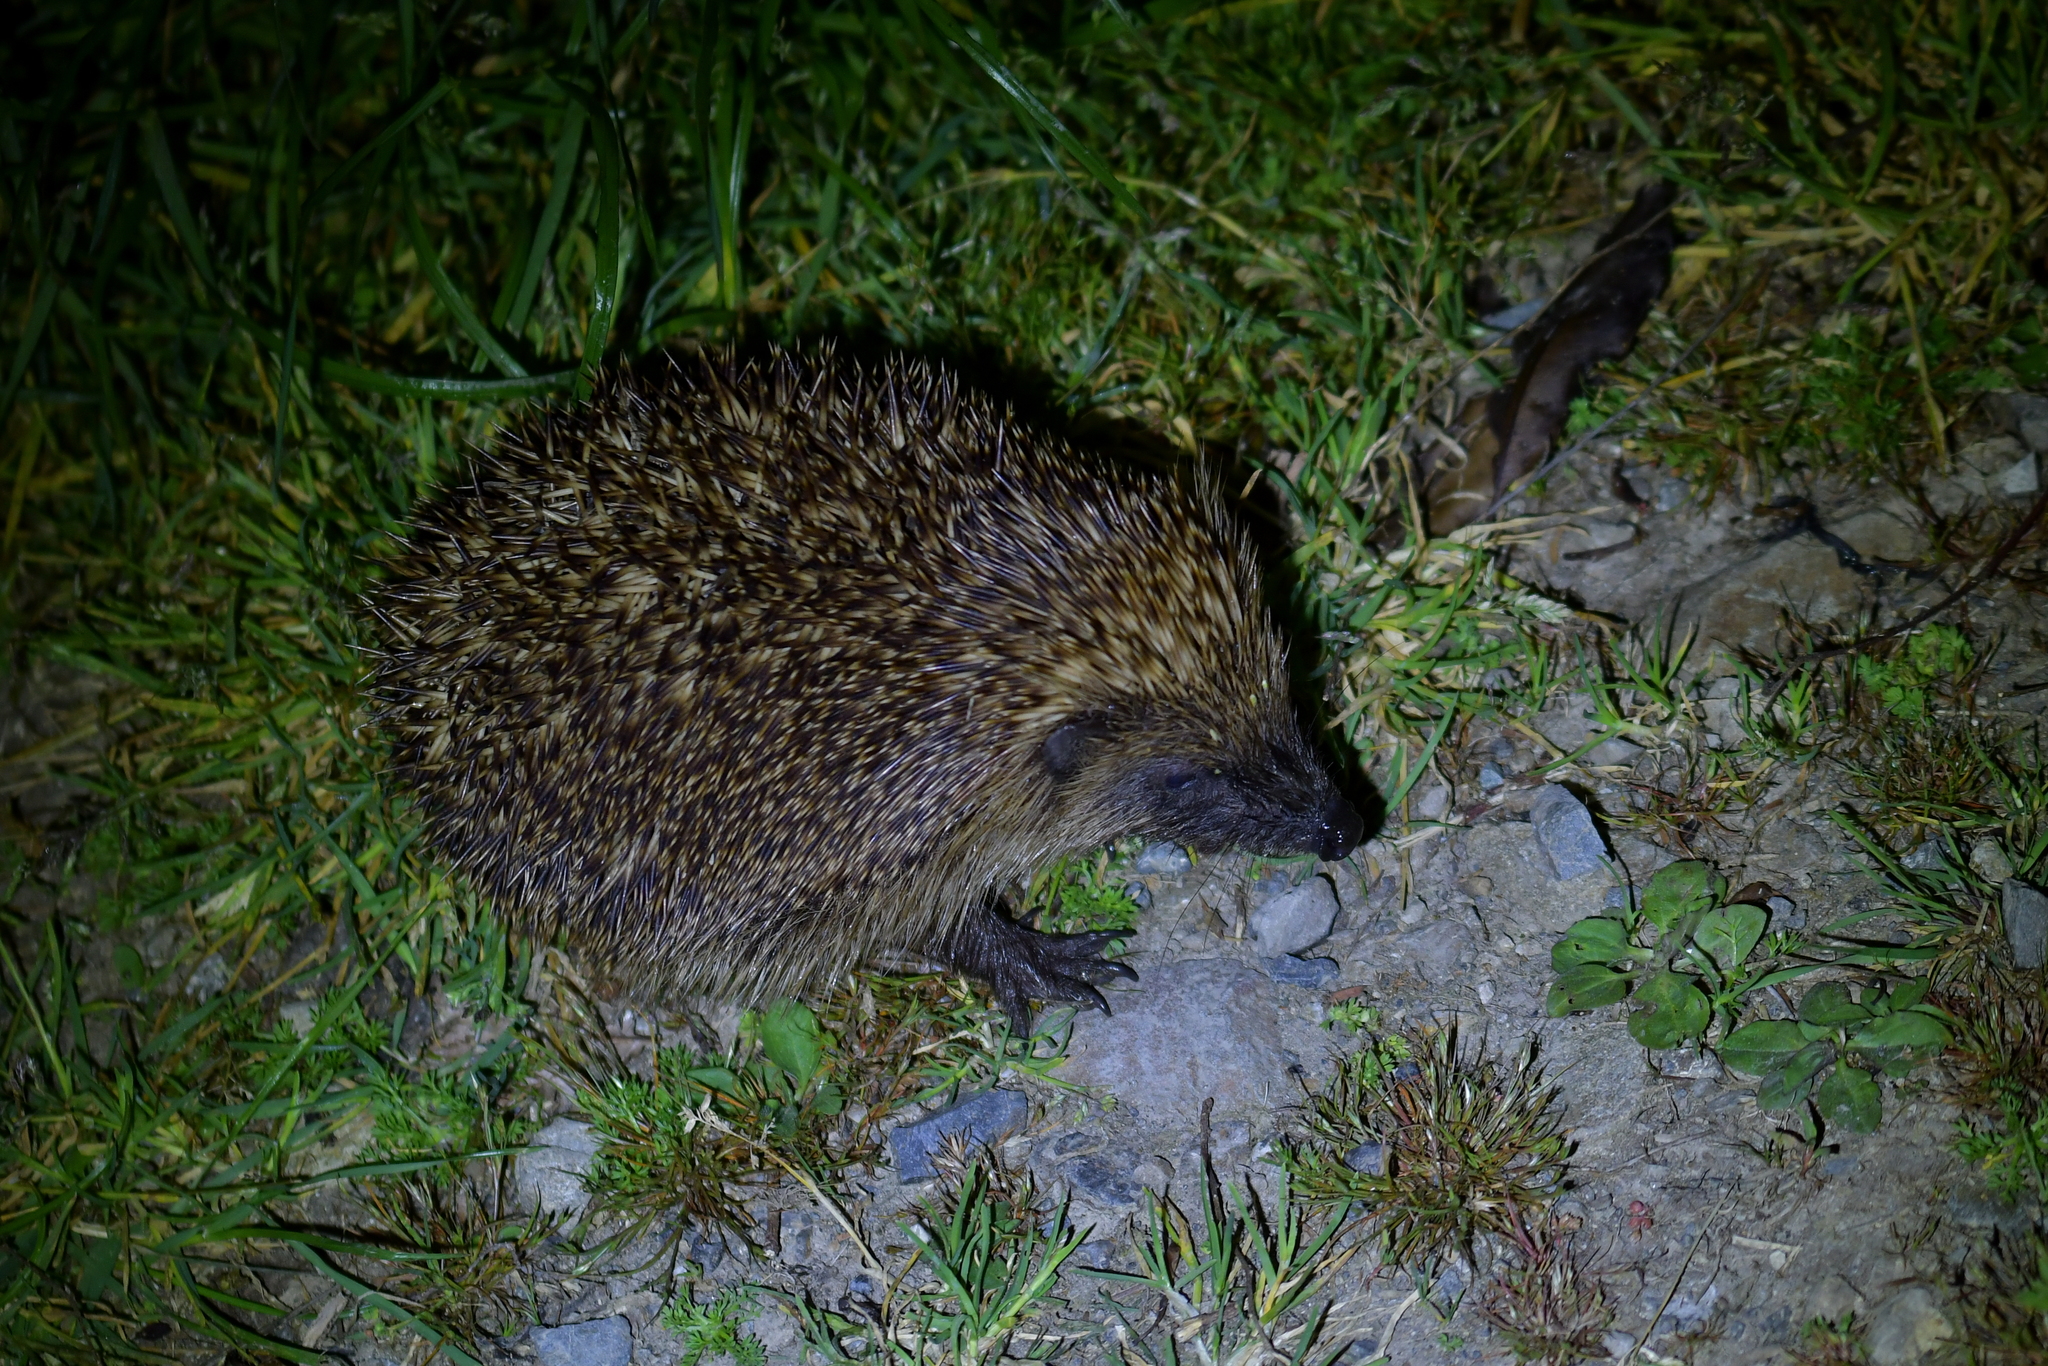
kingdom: Animalia
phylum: Chordata
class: Mammalia
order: Erinaceomorpha
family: Erinaceidae
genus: Erinaceus
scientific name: Erinaceus europaeus
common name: West european hedgehog
